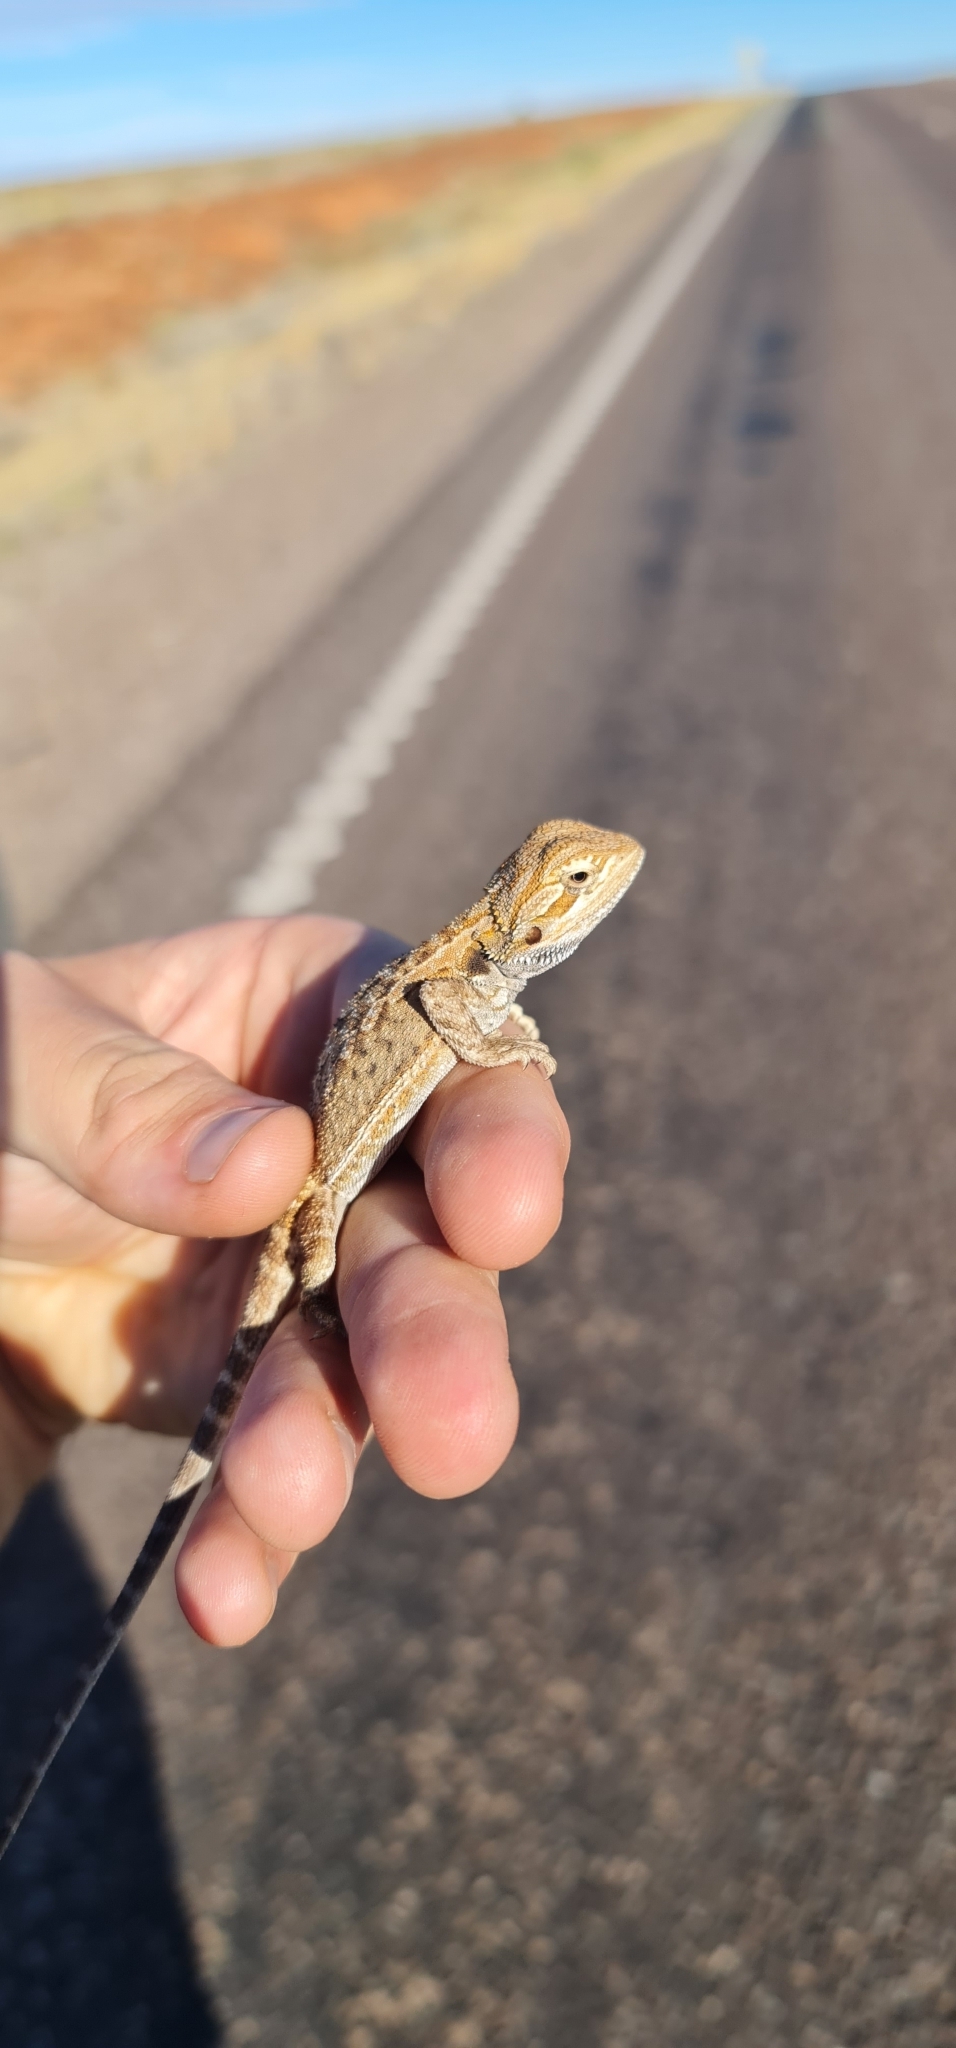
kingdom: Animalia
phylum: Chordata
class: Squamata
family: Agamidae
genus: Pogona
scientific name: Pogona vitticeps
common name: Central bearded dragon
